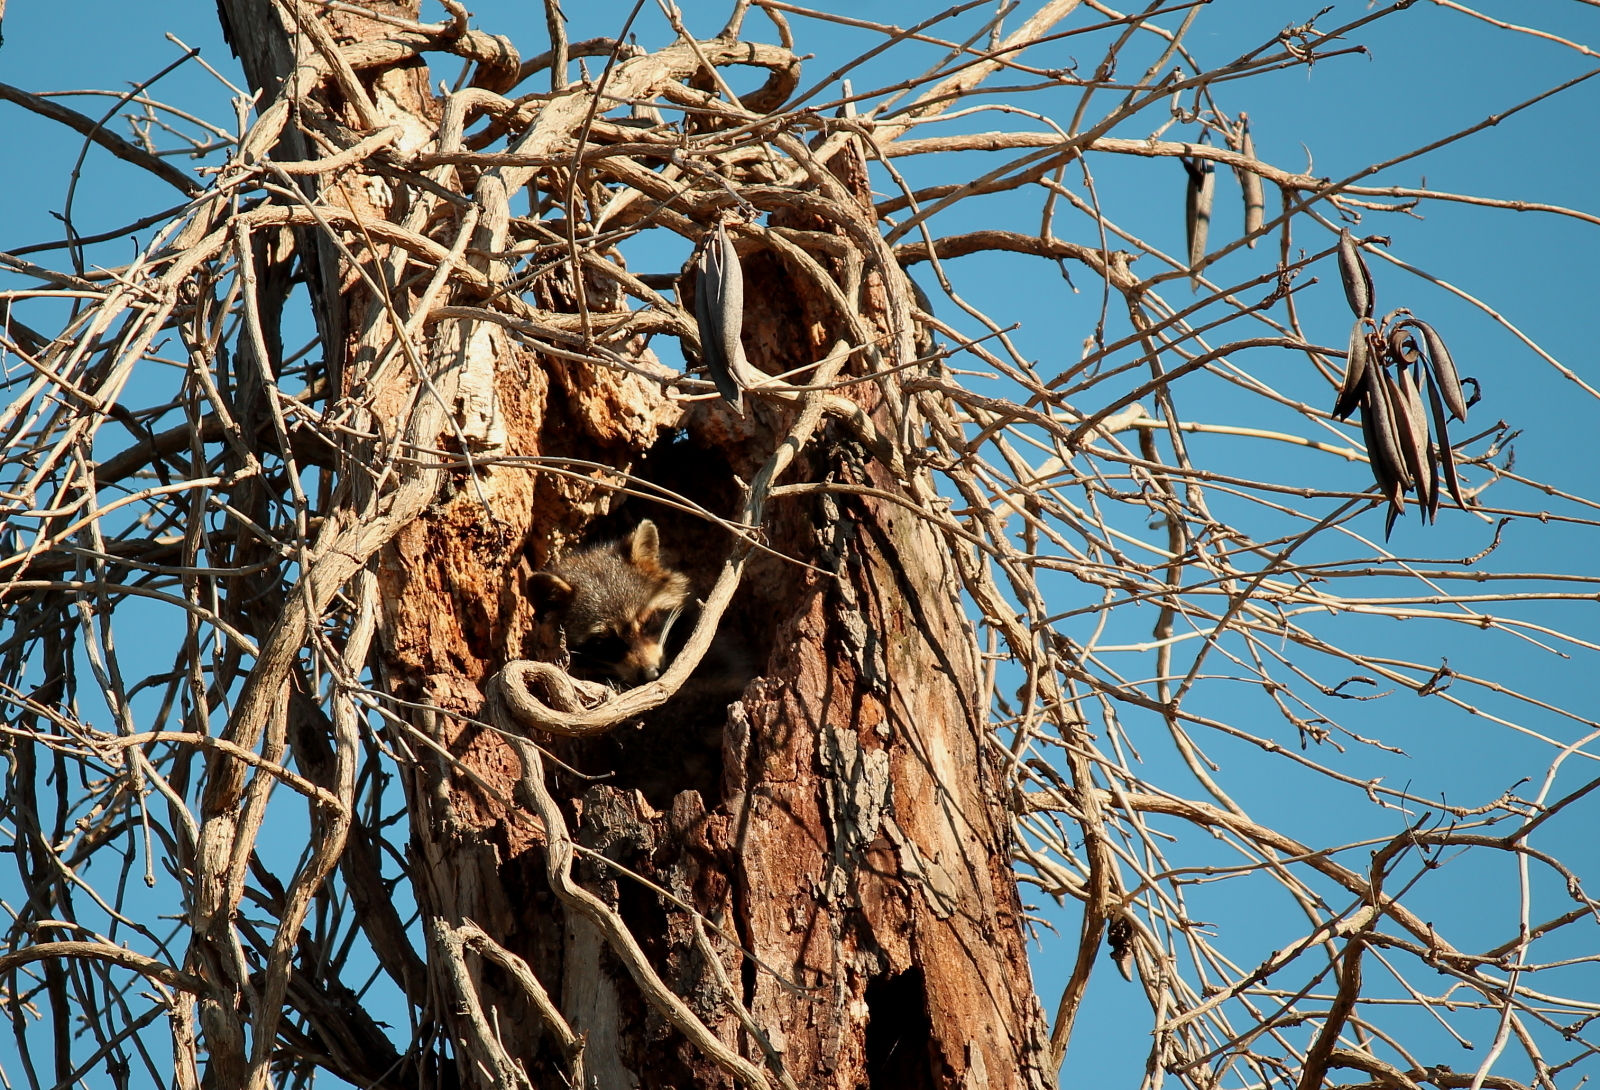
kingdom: Animalia
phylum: Chordata
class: Mammalia
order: Carnivora
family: Procyonidae
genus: Procyon
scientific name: Procyon lotor
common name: Raccoon
